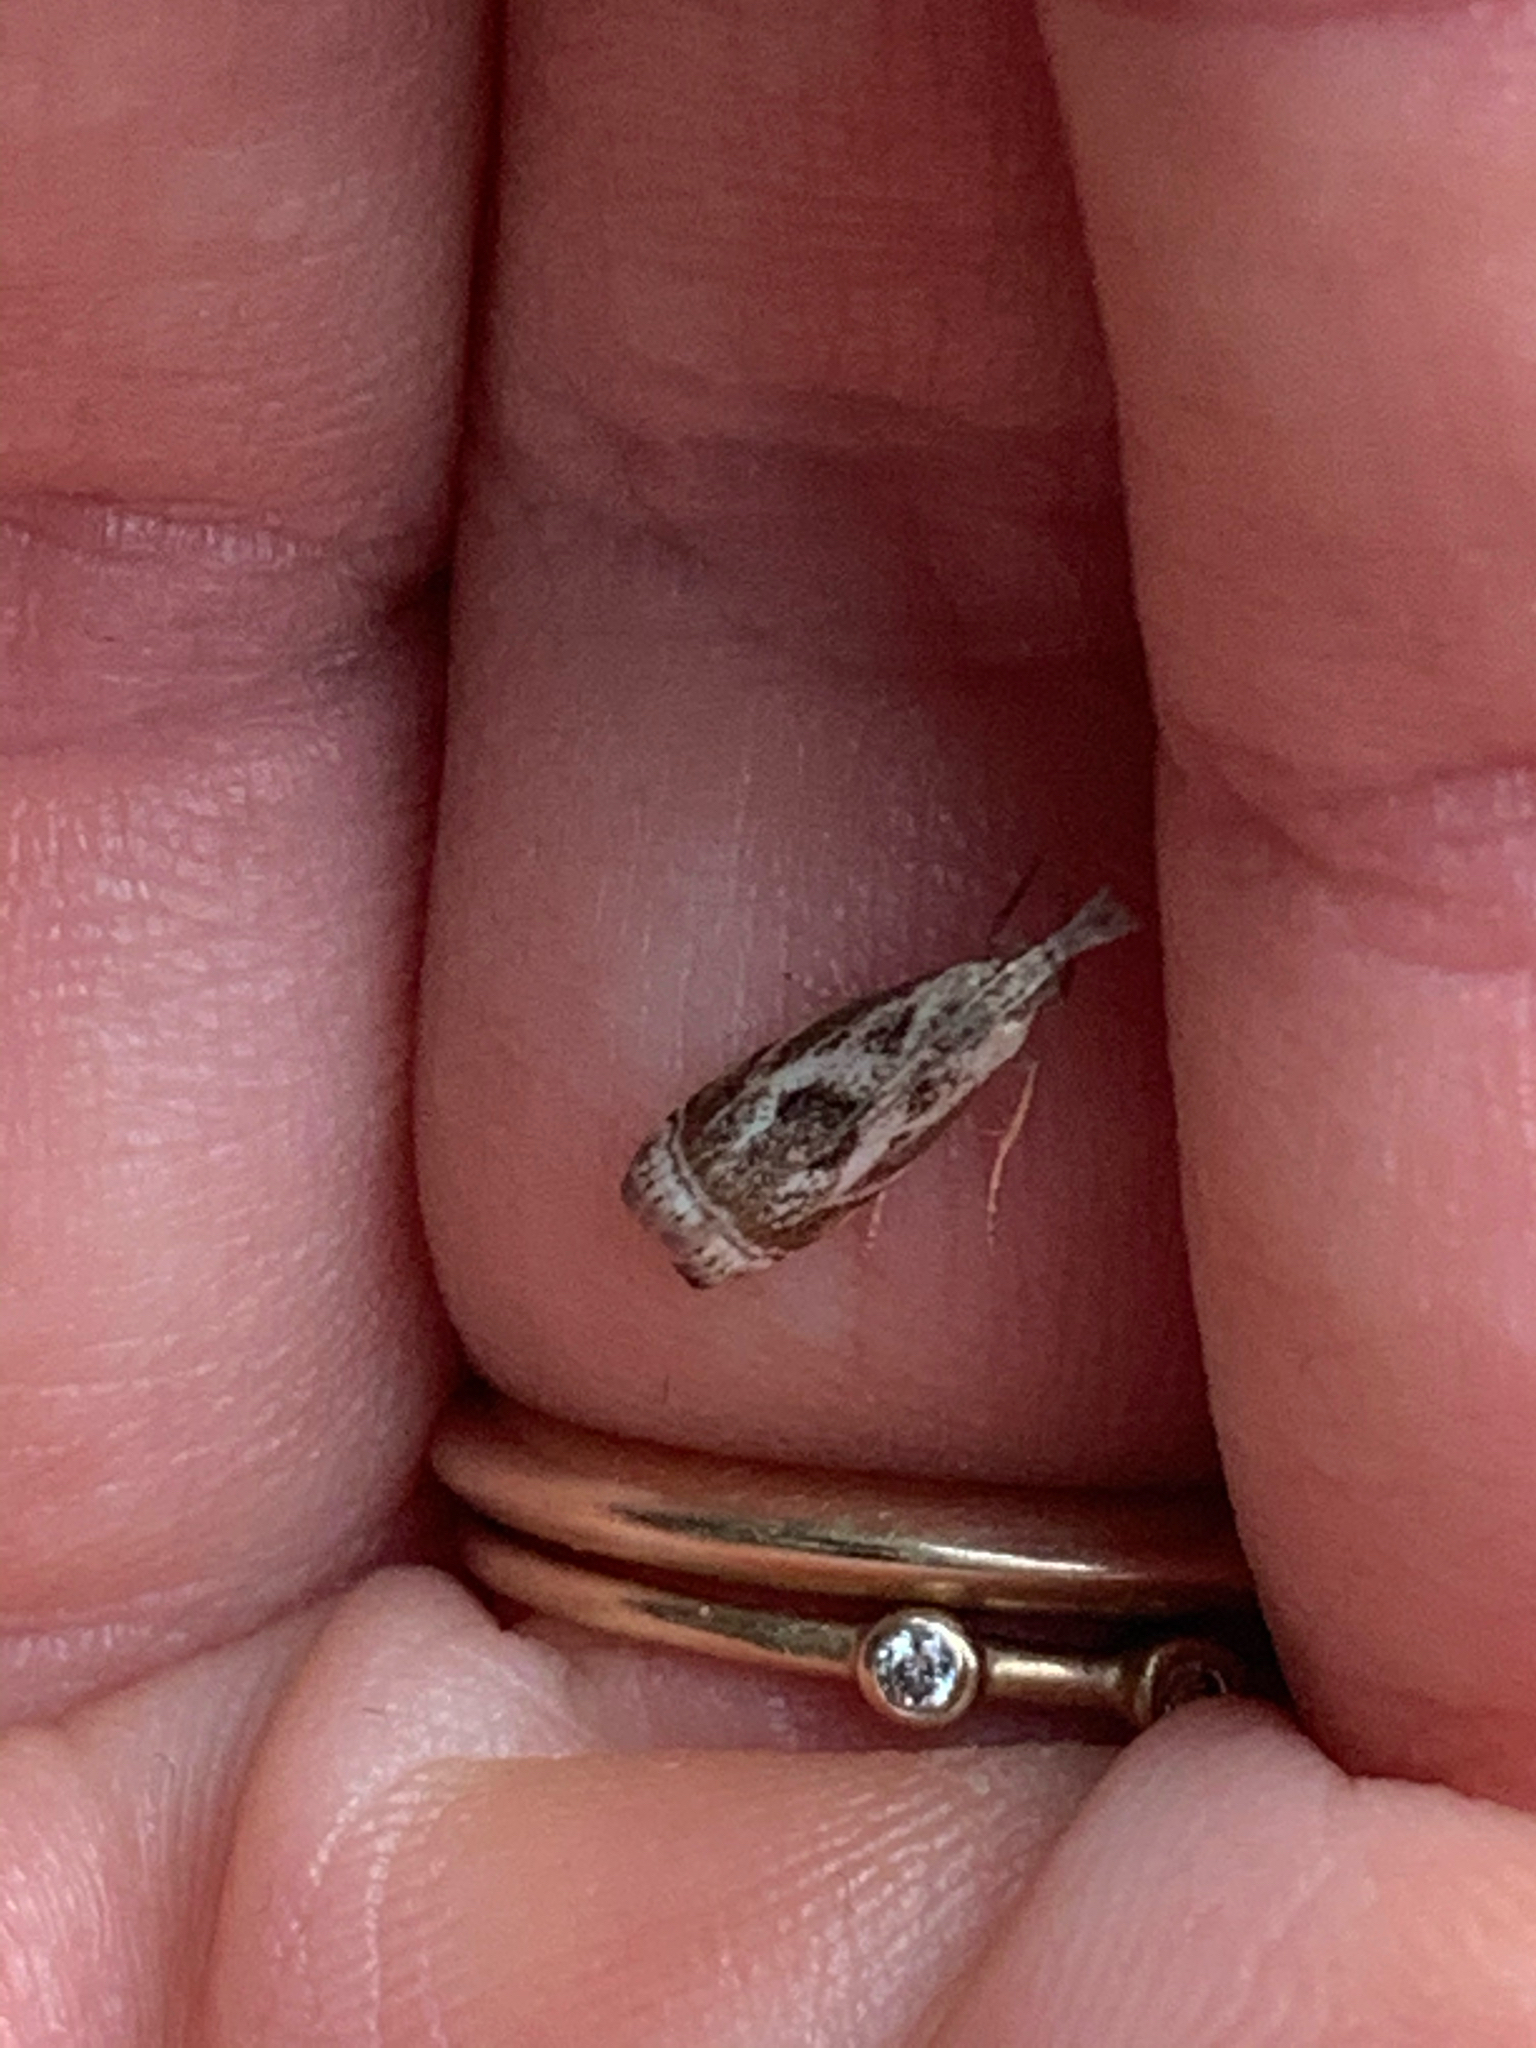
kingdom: Animalia
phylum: Arthropoda
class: Insecta
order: Lepidoptera
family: Crambidae
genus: Microcrambus
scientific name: Microcrambus elegans
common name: Elegant grass-veneer
